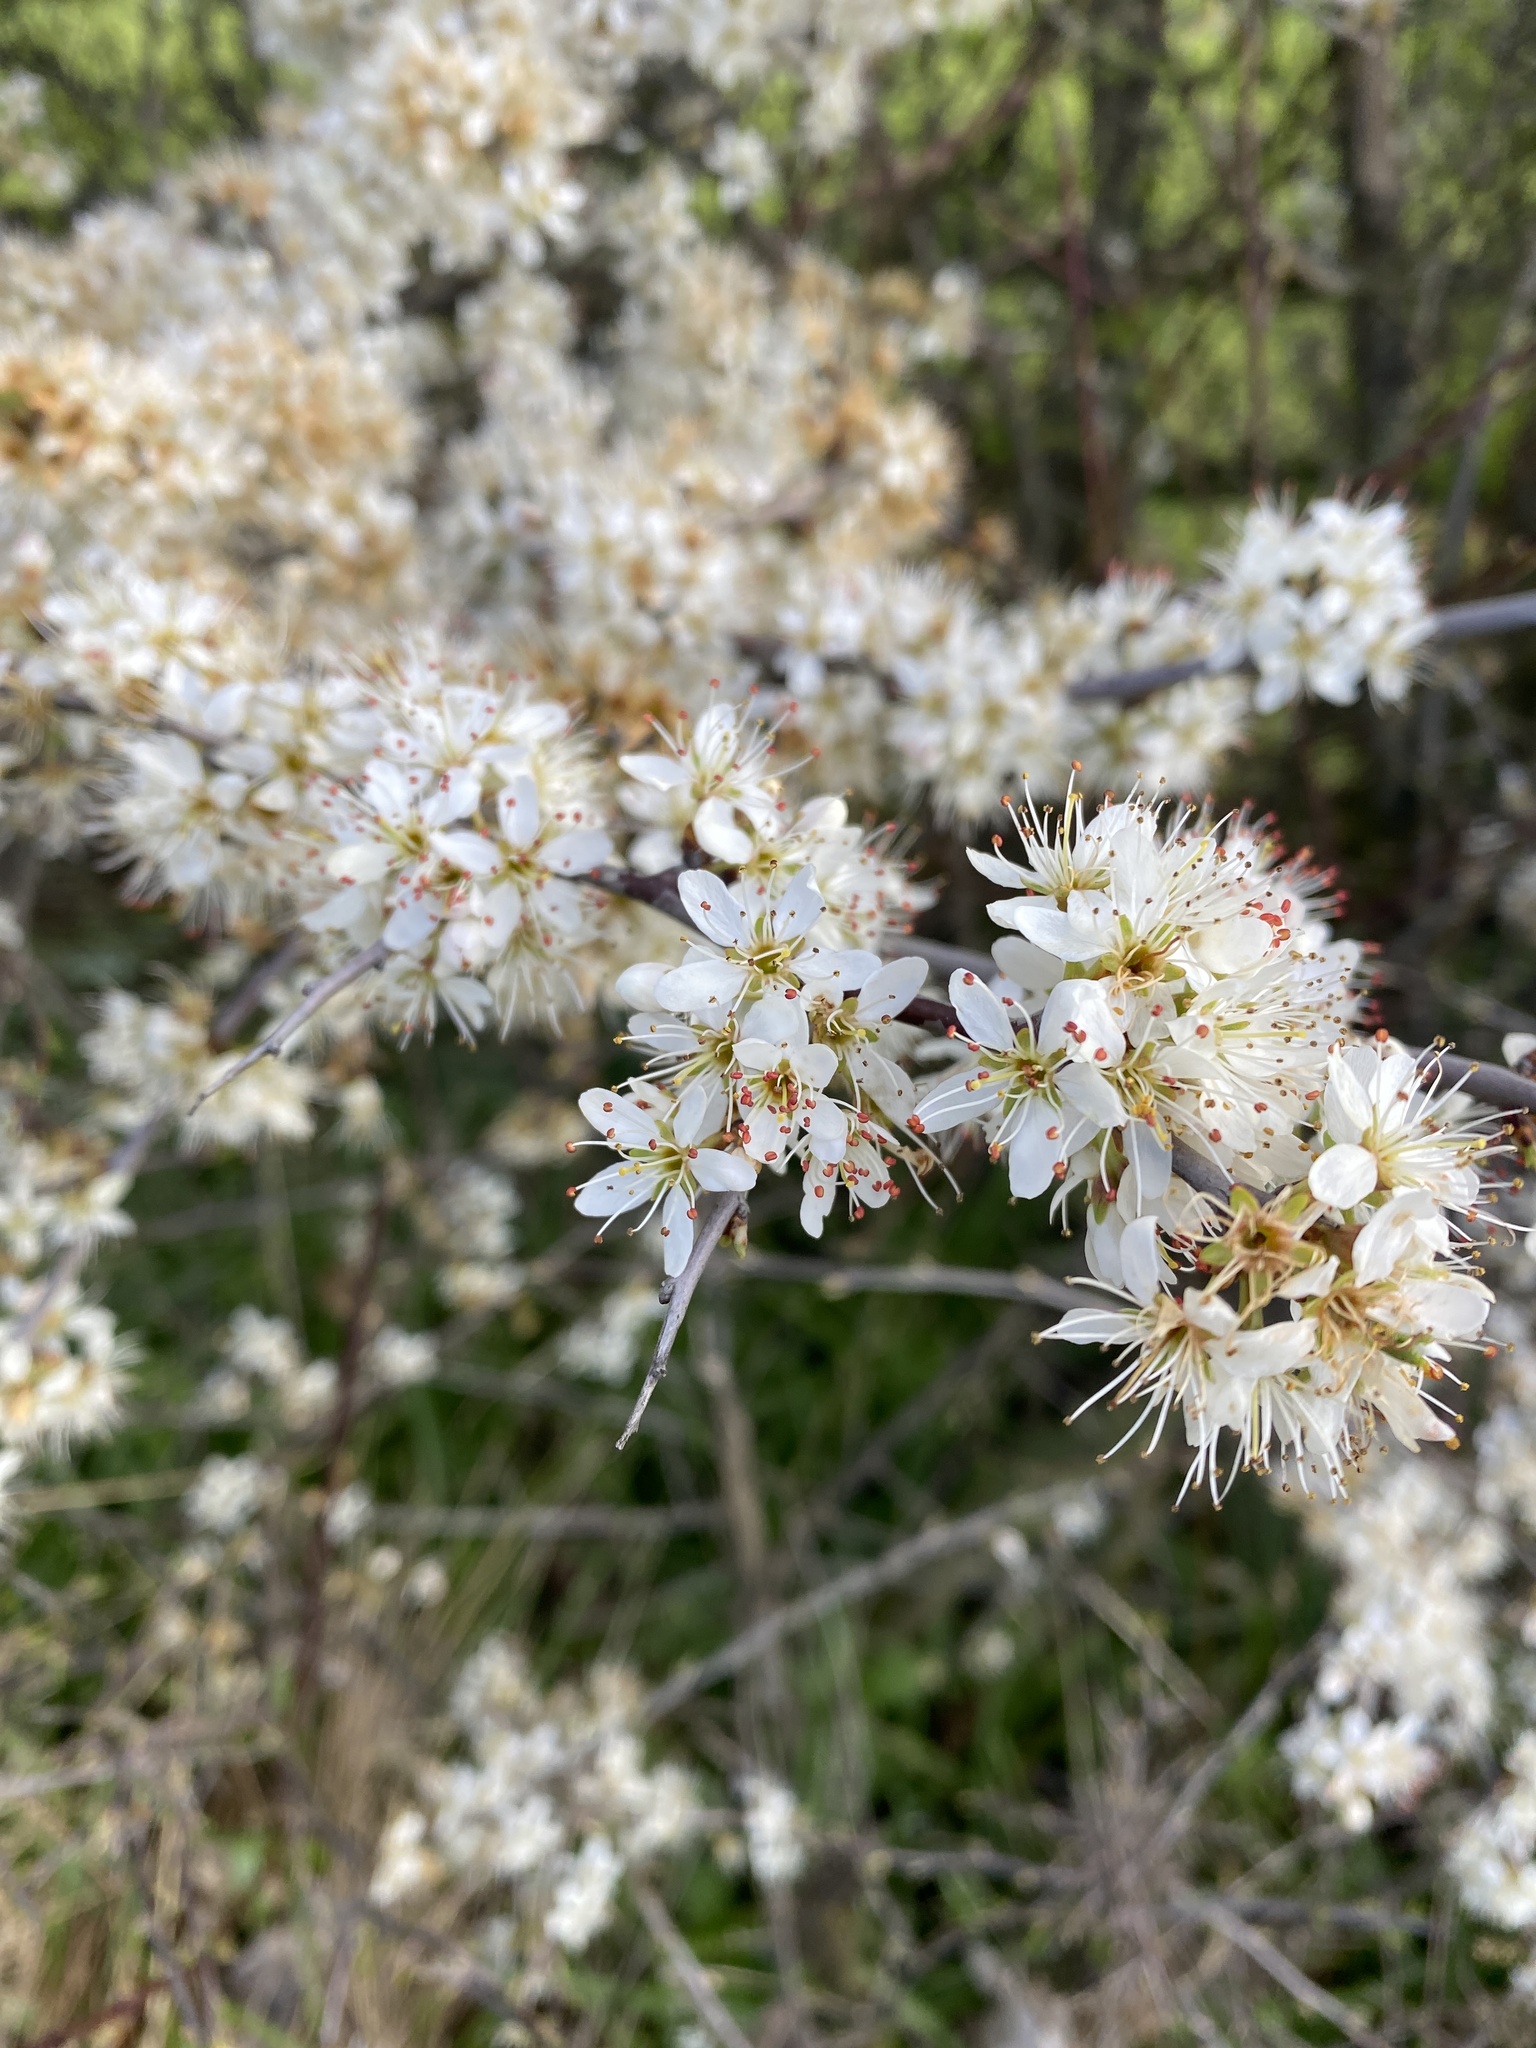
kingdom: Plantae
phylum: Tracheophyta
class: Magnoliopsida
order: Rosales
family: Rosaceae
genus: Prunus
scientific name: Prunus spinosa
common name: Blackthorn
